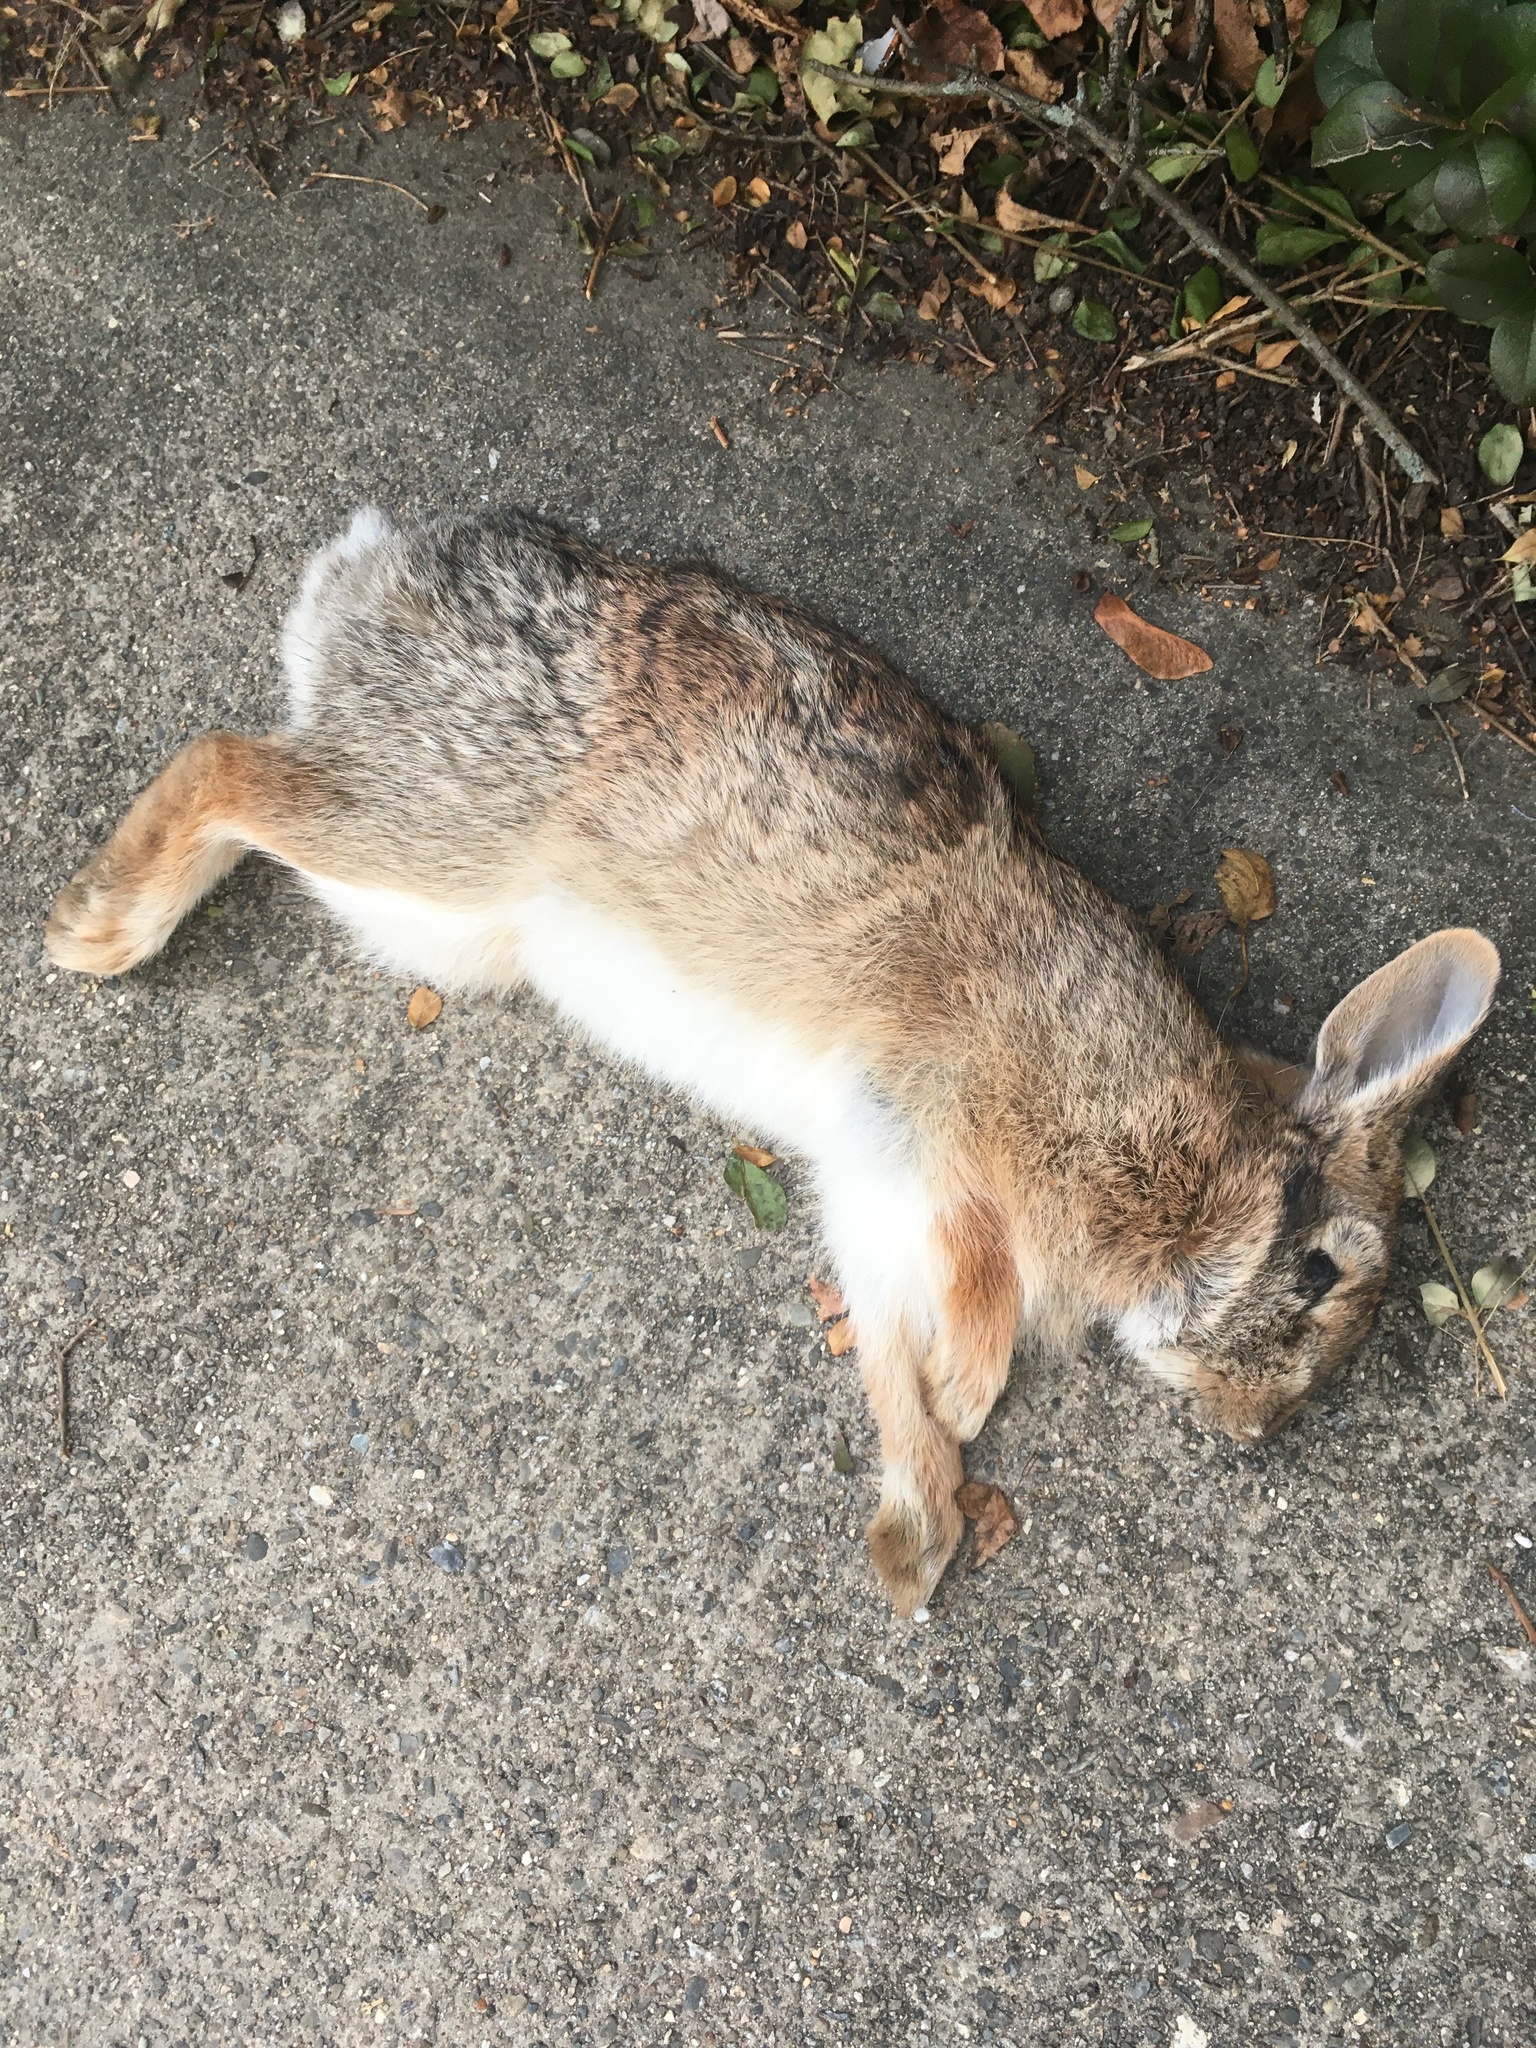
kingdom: Animalia
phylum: Chordata
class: Mammalia
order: Lagomorpha
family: Leporidae
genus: Sylvilagus
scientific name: Sylvilagus floridanus
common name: Eastern cottontail
